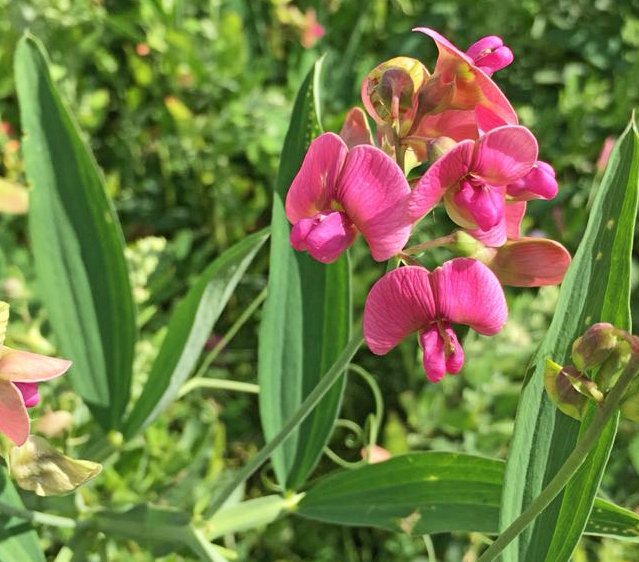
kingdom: Plantae
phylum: Tracheophyta
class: Magnoliopsida
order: Fabales
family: Fabaceae
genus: Lathyrus
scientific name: Lathyrus sylvestris
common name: Flat pea
